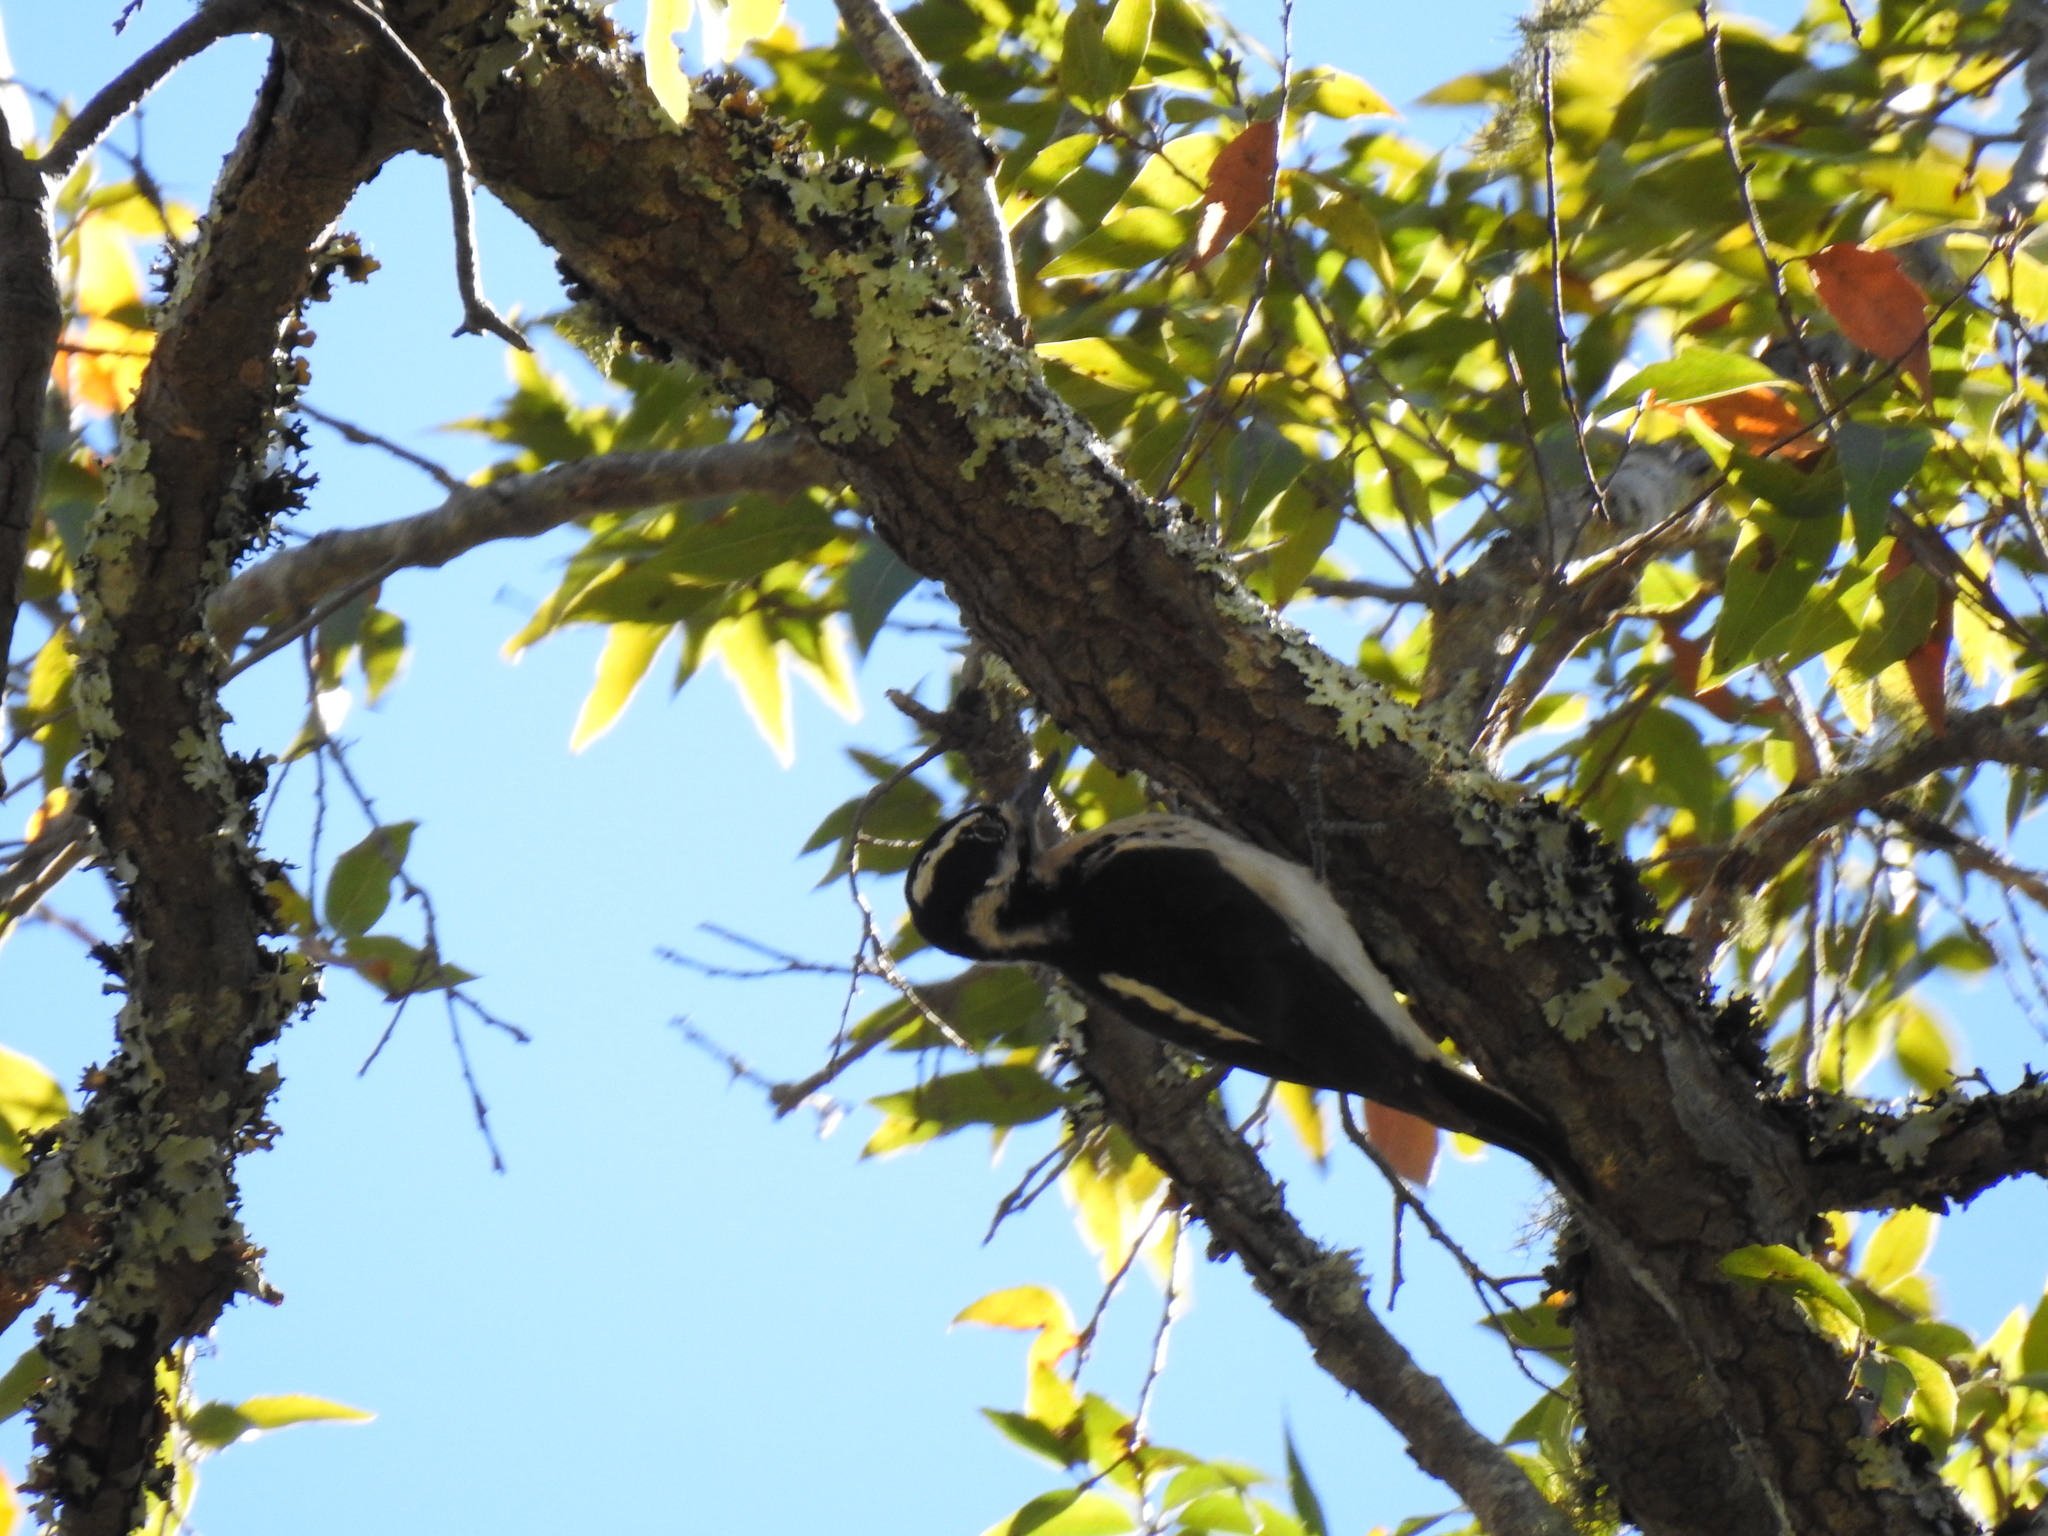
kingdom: Animalia
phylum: Chordata
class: Aves
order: Piciformes
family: Picidae
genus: Leuconotopicus
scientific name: Leuconotopicus villosus
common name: Hairy woodpecker
